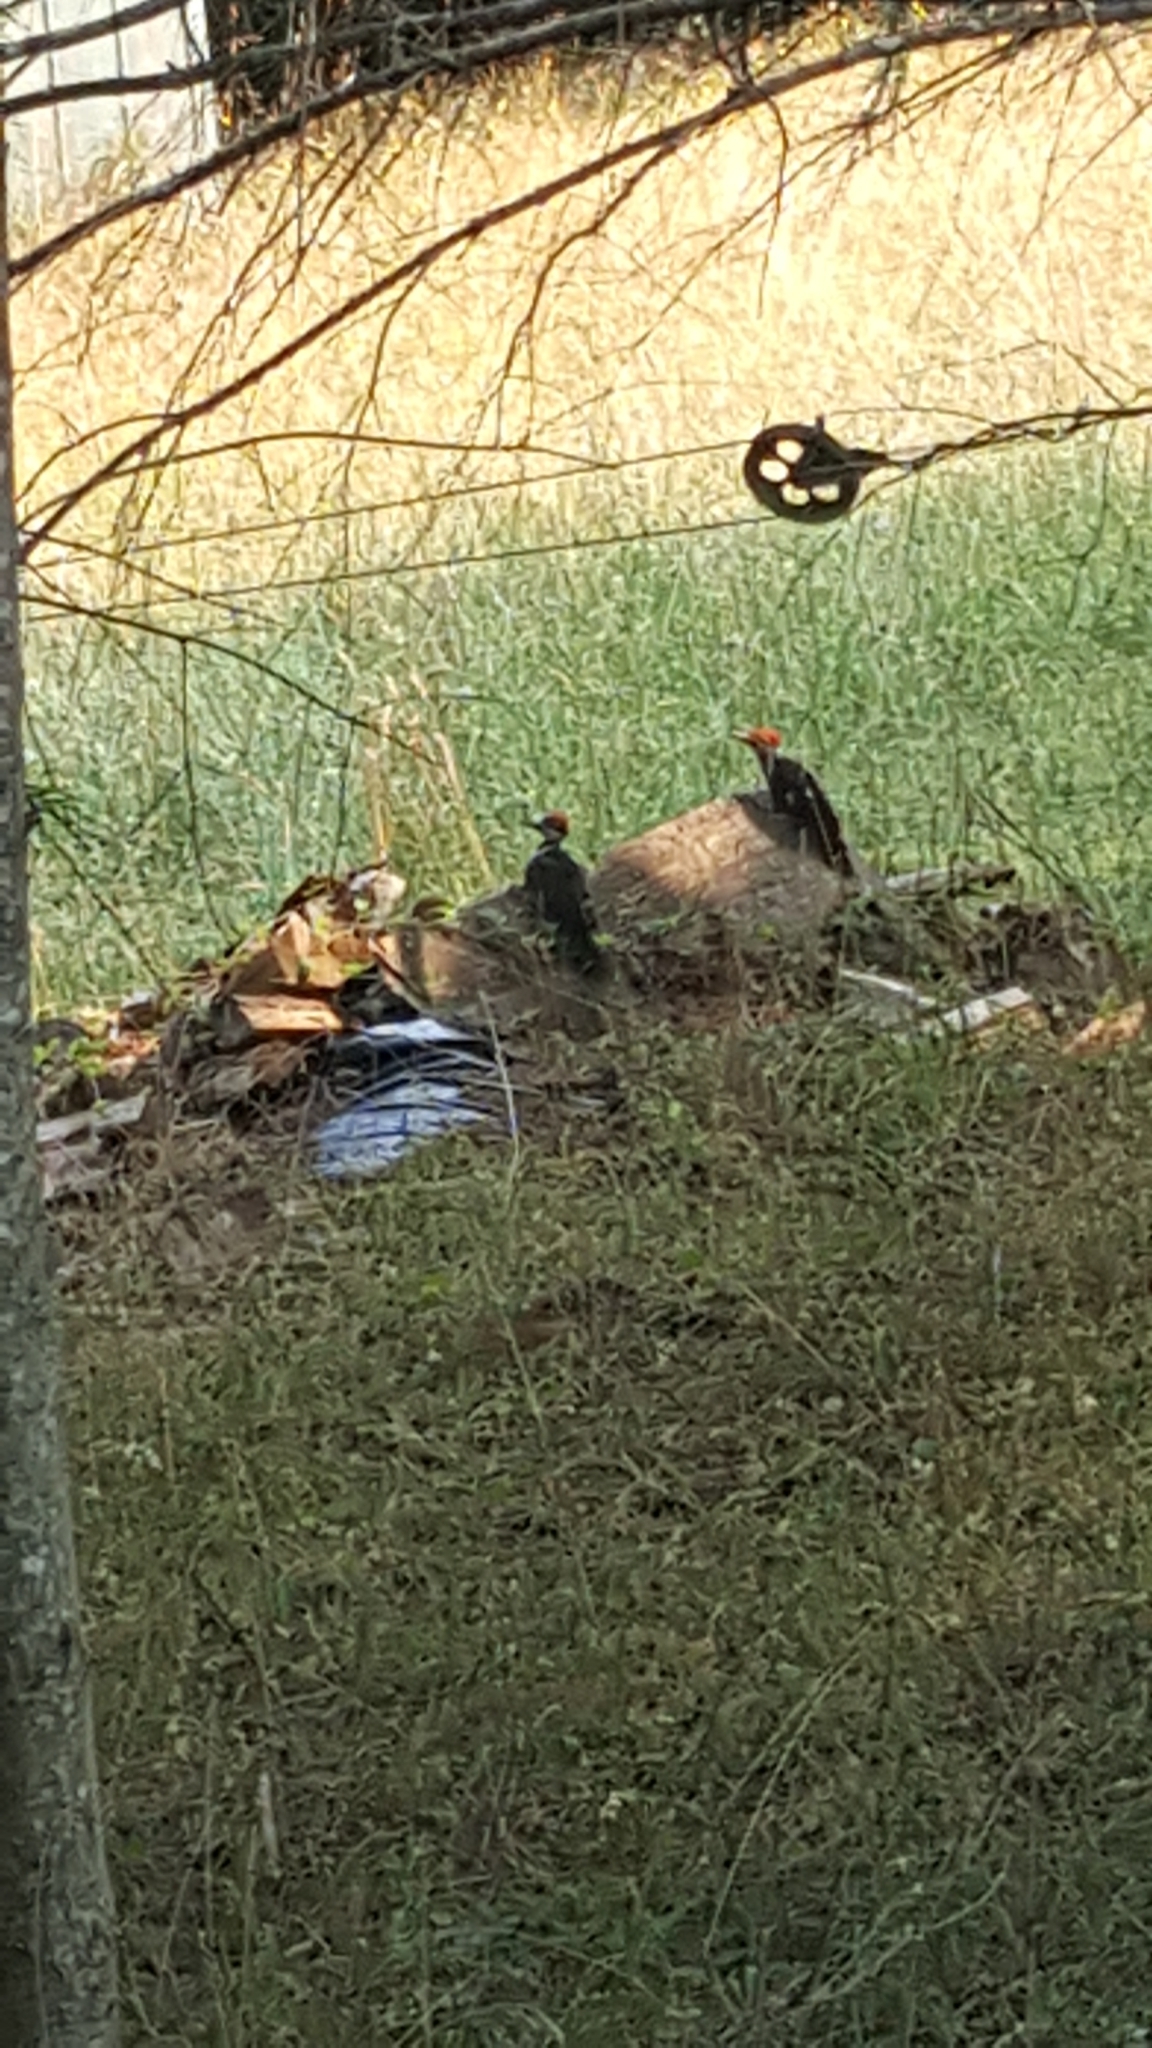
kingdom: Animalia
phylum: Chordata
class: Aves
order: Piciformes
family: Picidae
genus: Dryocopus
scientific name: Dryocopus pileatus
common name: Pileated woodpecker
